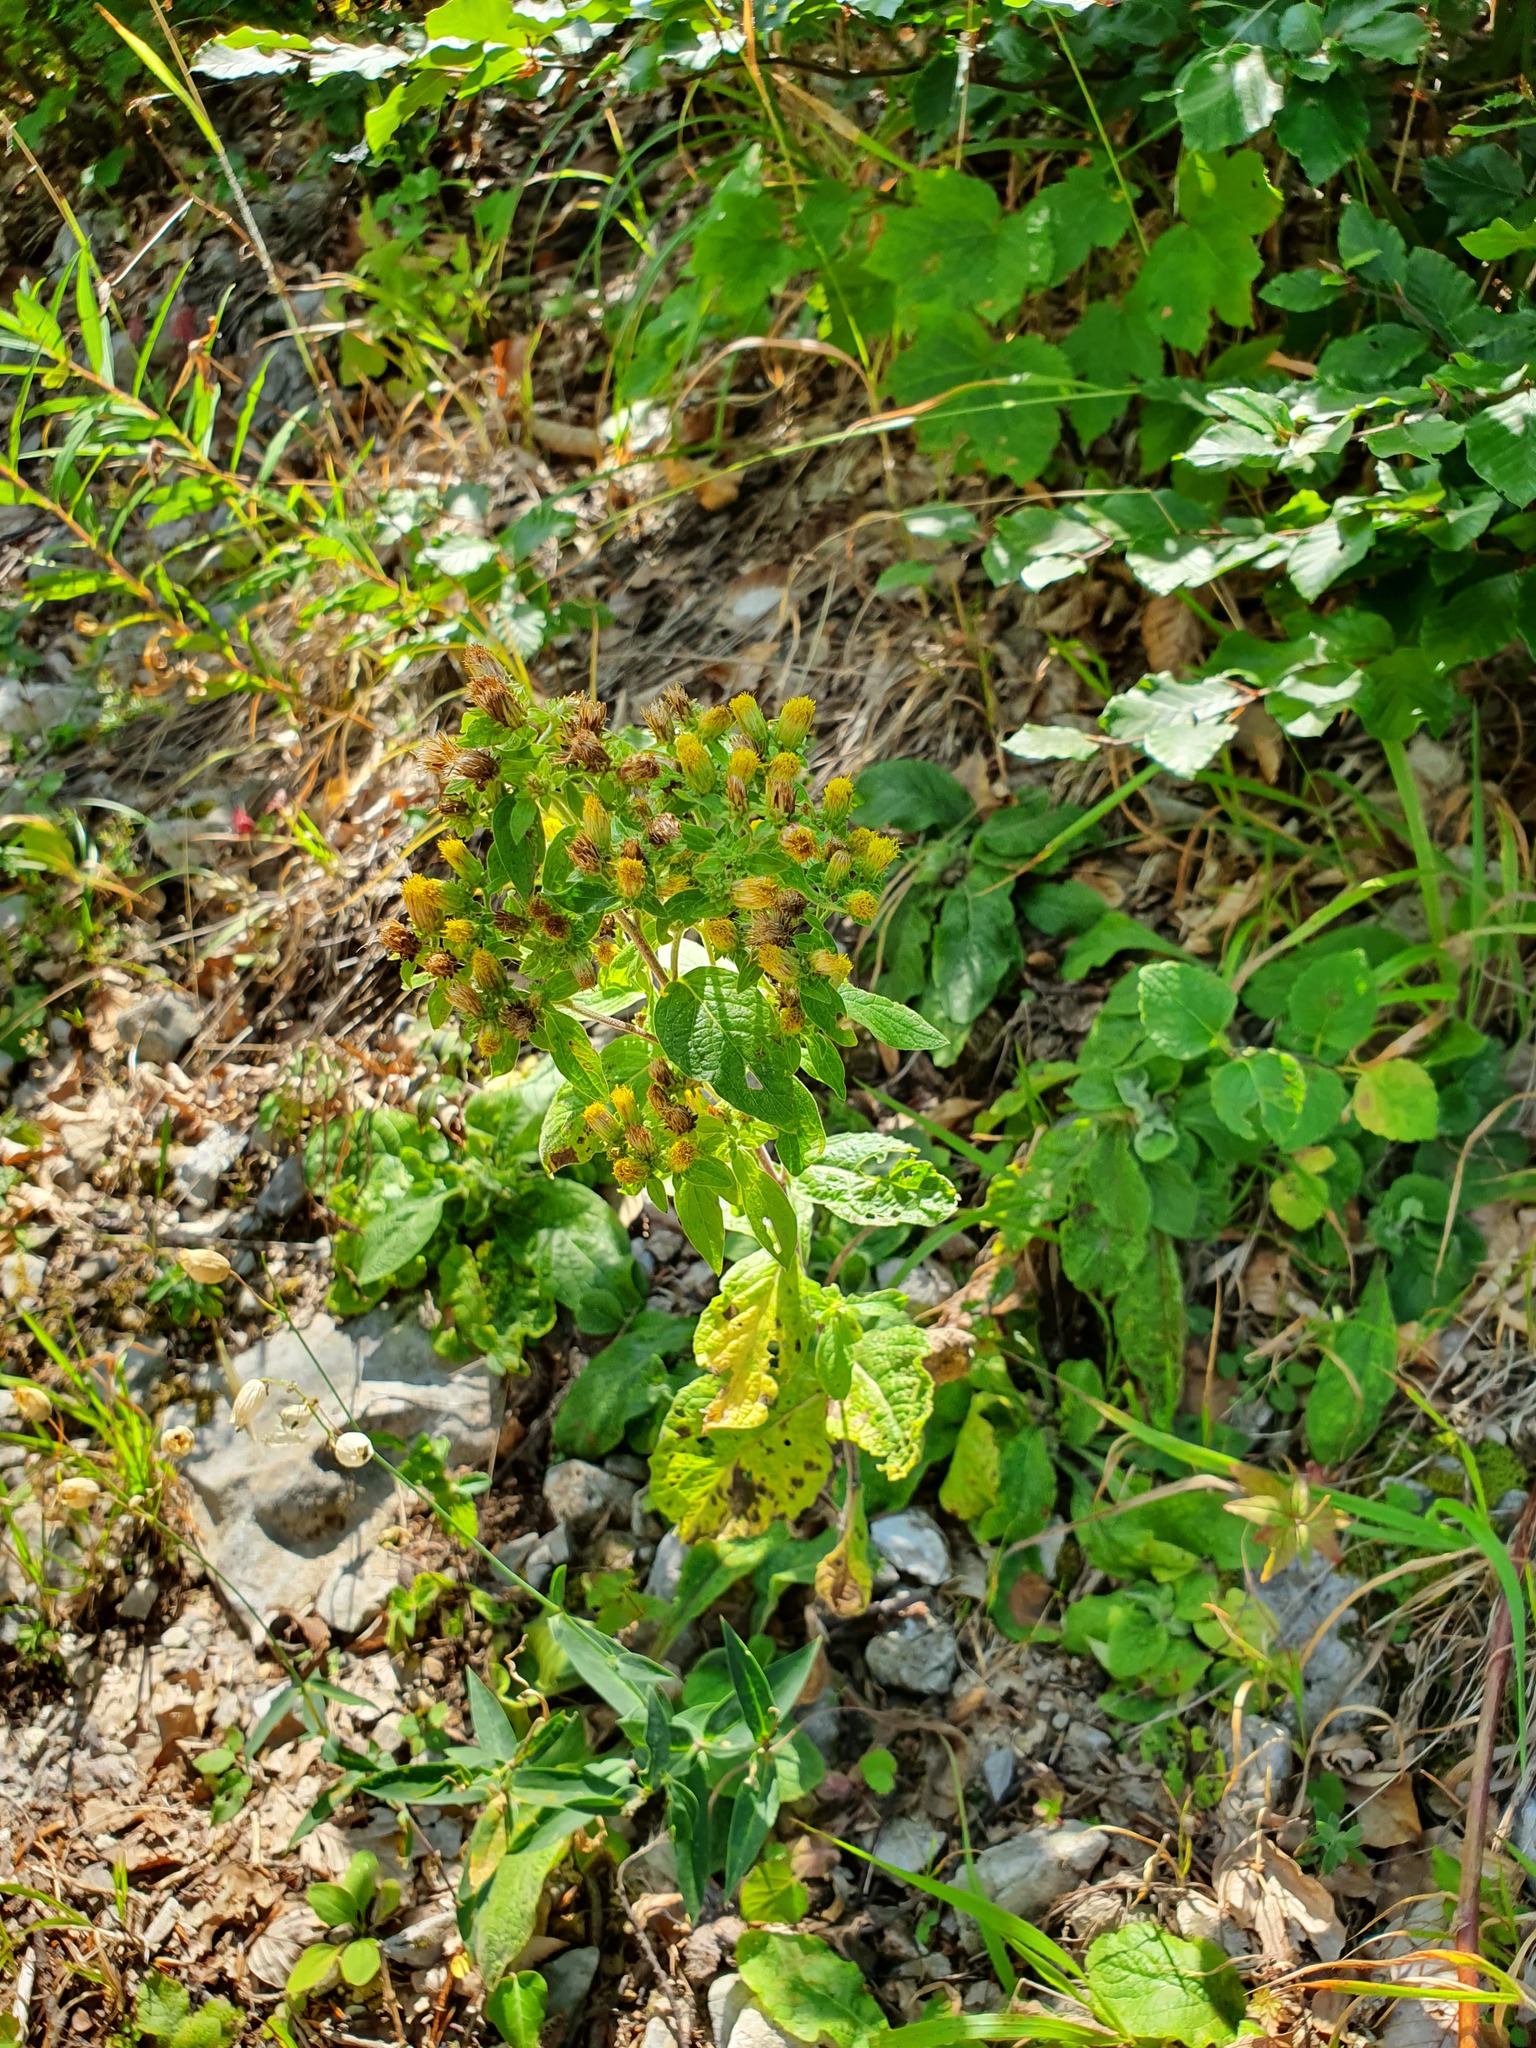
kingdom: Plantae
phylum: Tracheophyta
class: Magnoliopsida
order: Asterales
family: Asteraceae
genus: Pentanema
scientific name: Pentanema squarrosum
